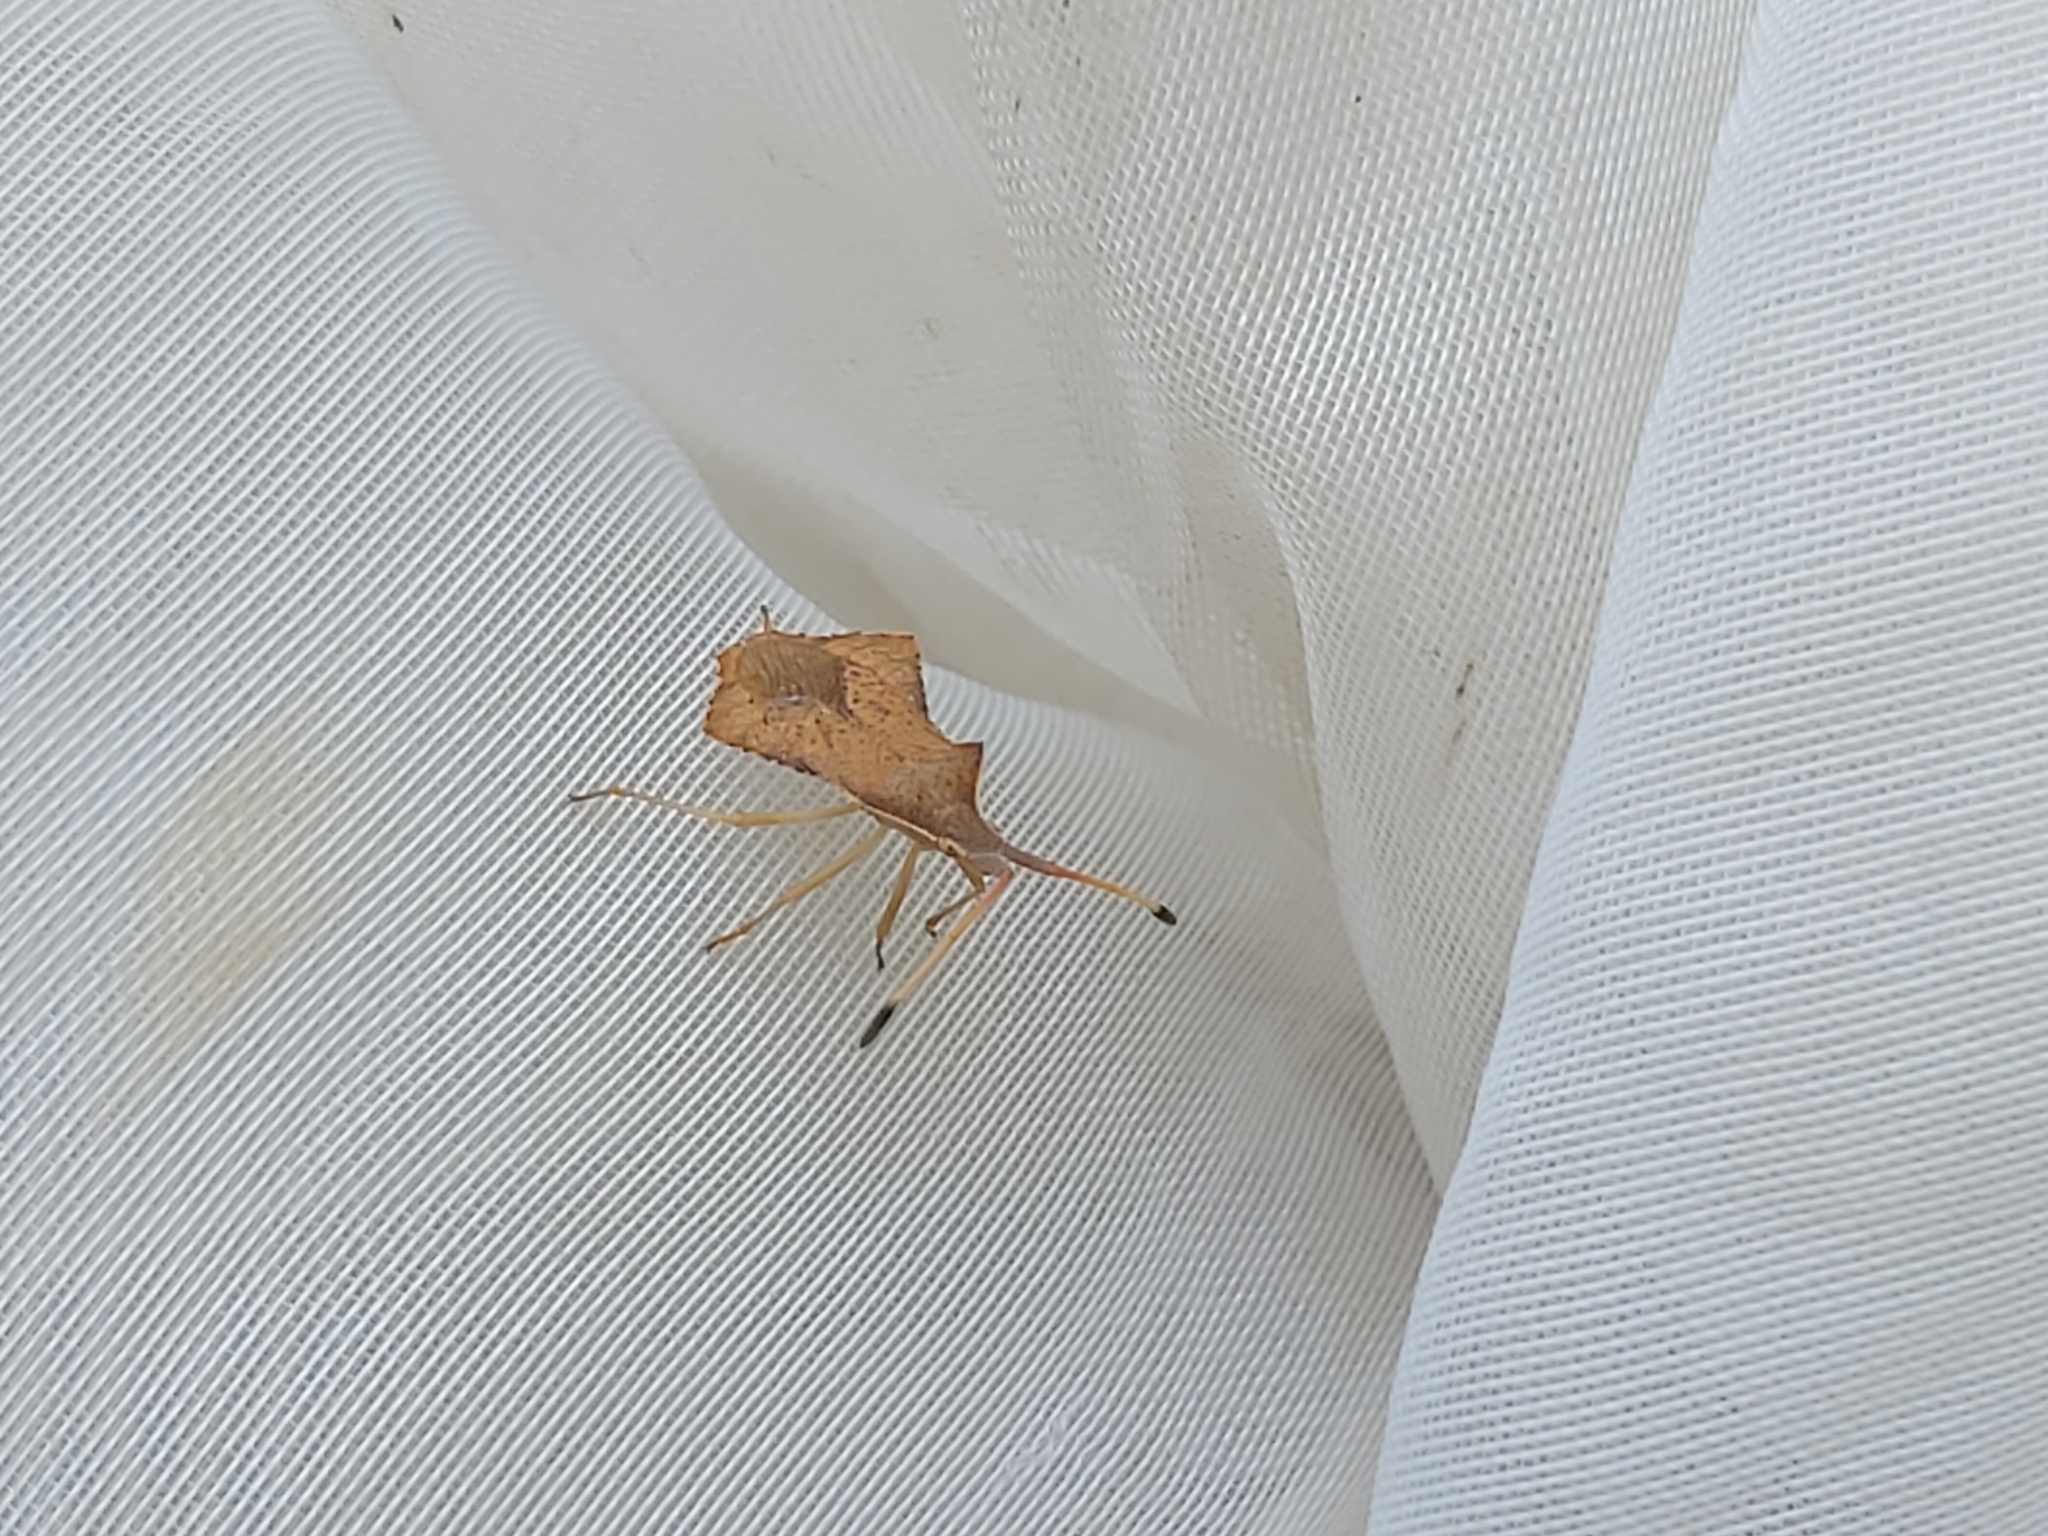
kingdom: Animalia
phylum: Arthropoda
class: Insecta
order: Hemiptera
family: Coreidae
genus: Syromastus
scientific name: Syromastus rhombeus
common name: Rhombic leatherbug
